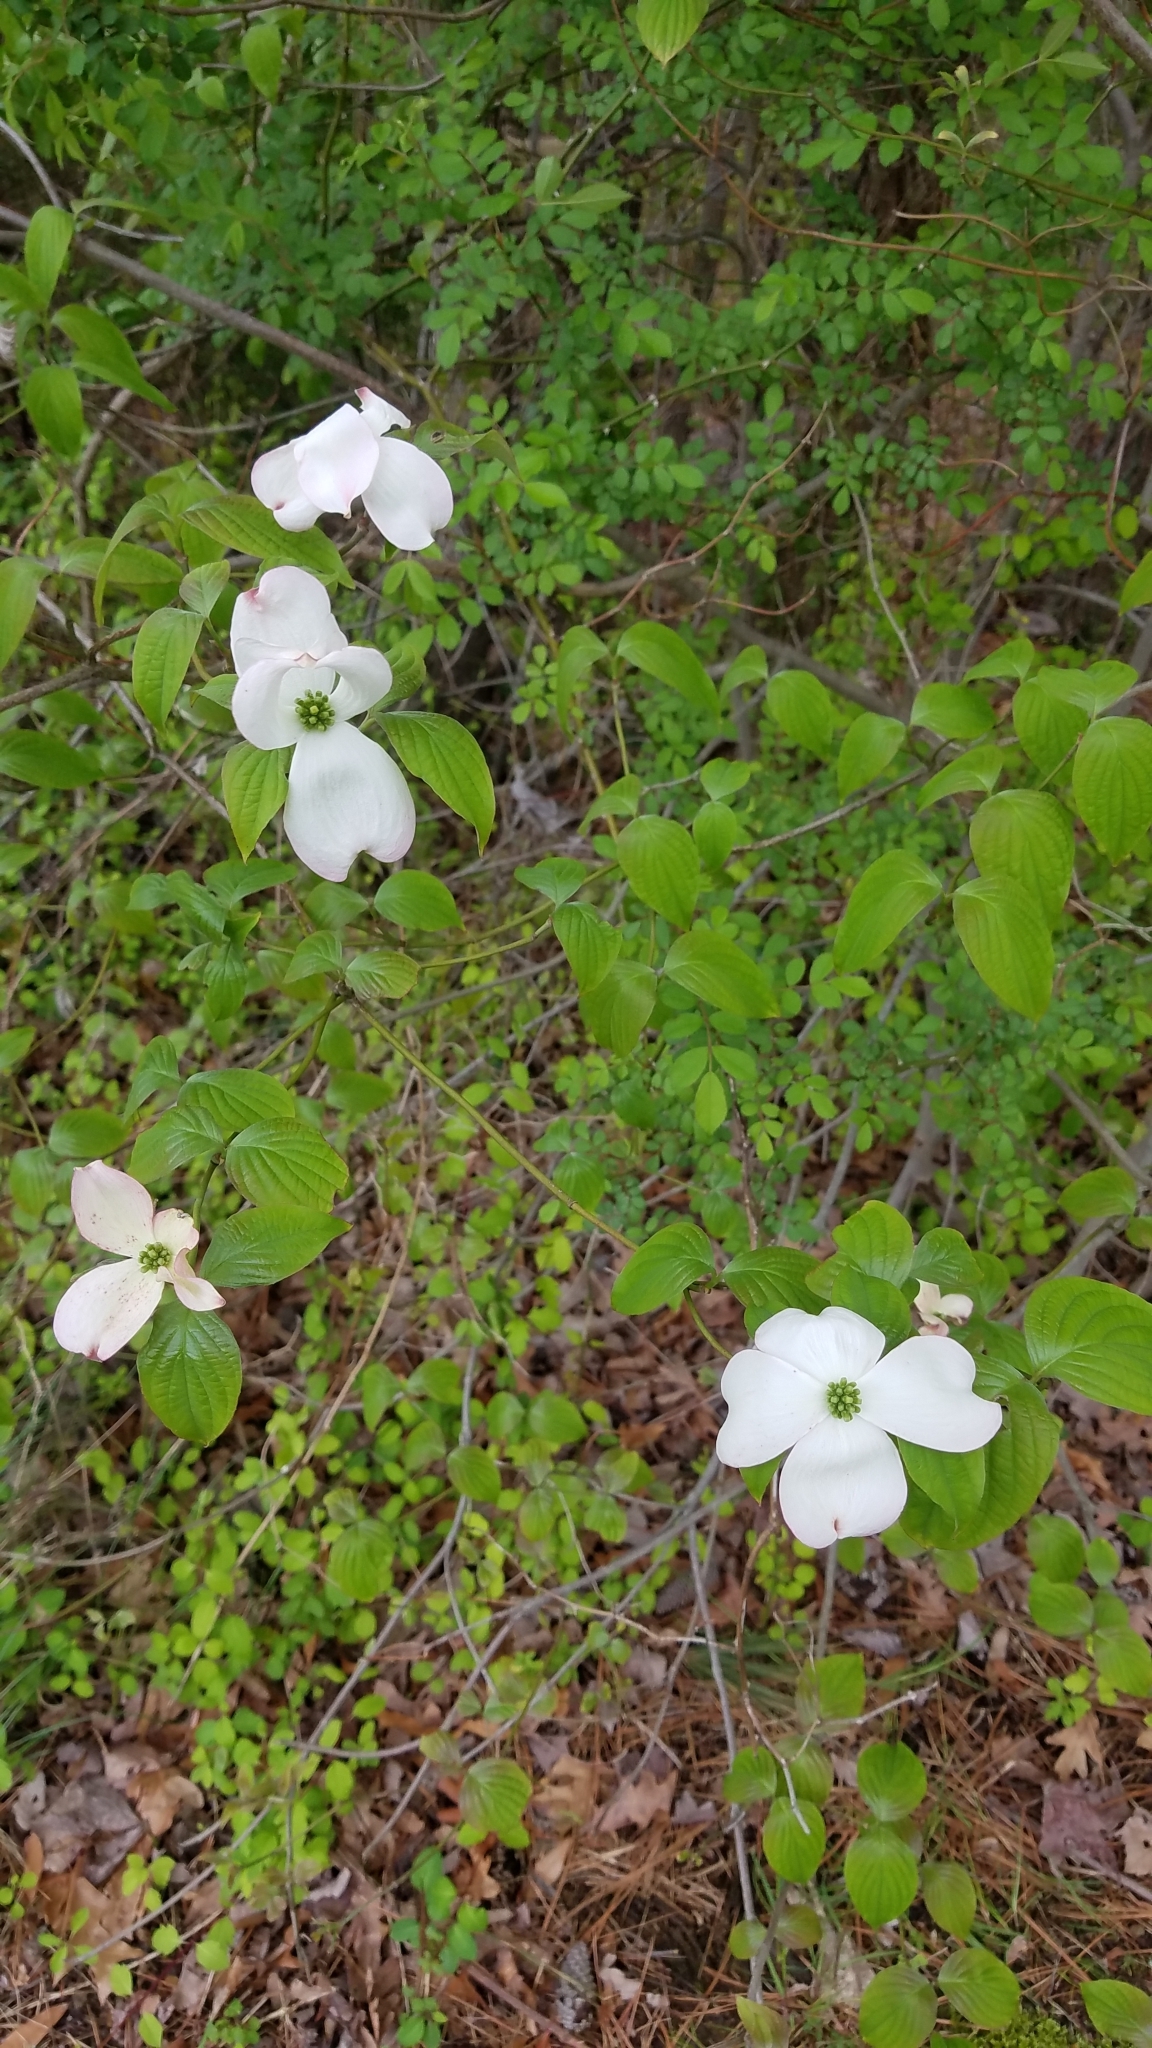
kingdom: Plantae
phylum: Tracheophyta
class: Magnoliopsida
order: Cornales
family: Cornaceae
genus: Cornus
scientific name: Cornus florida
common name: Flowering dogwood
